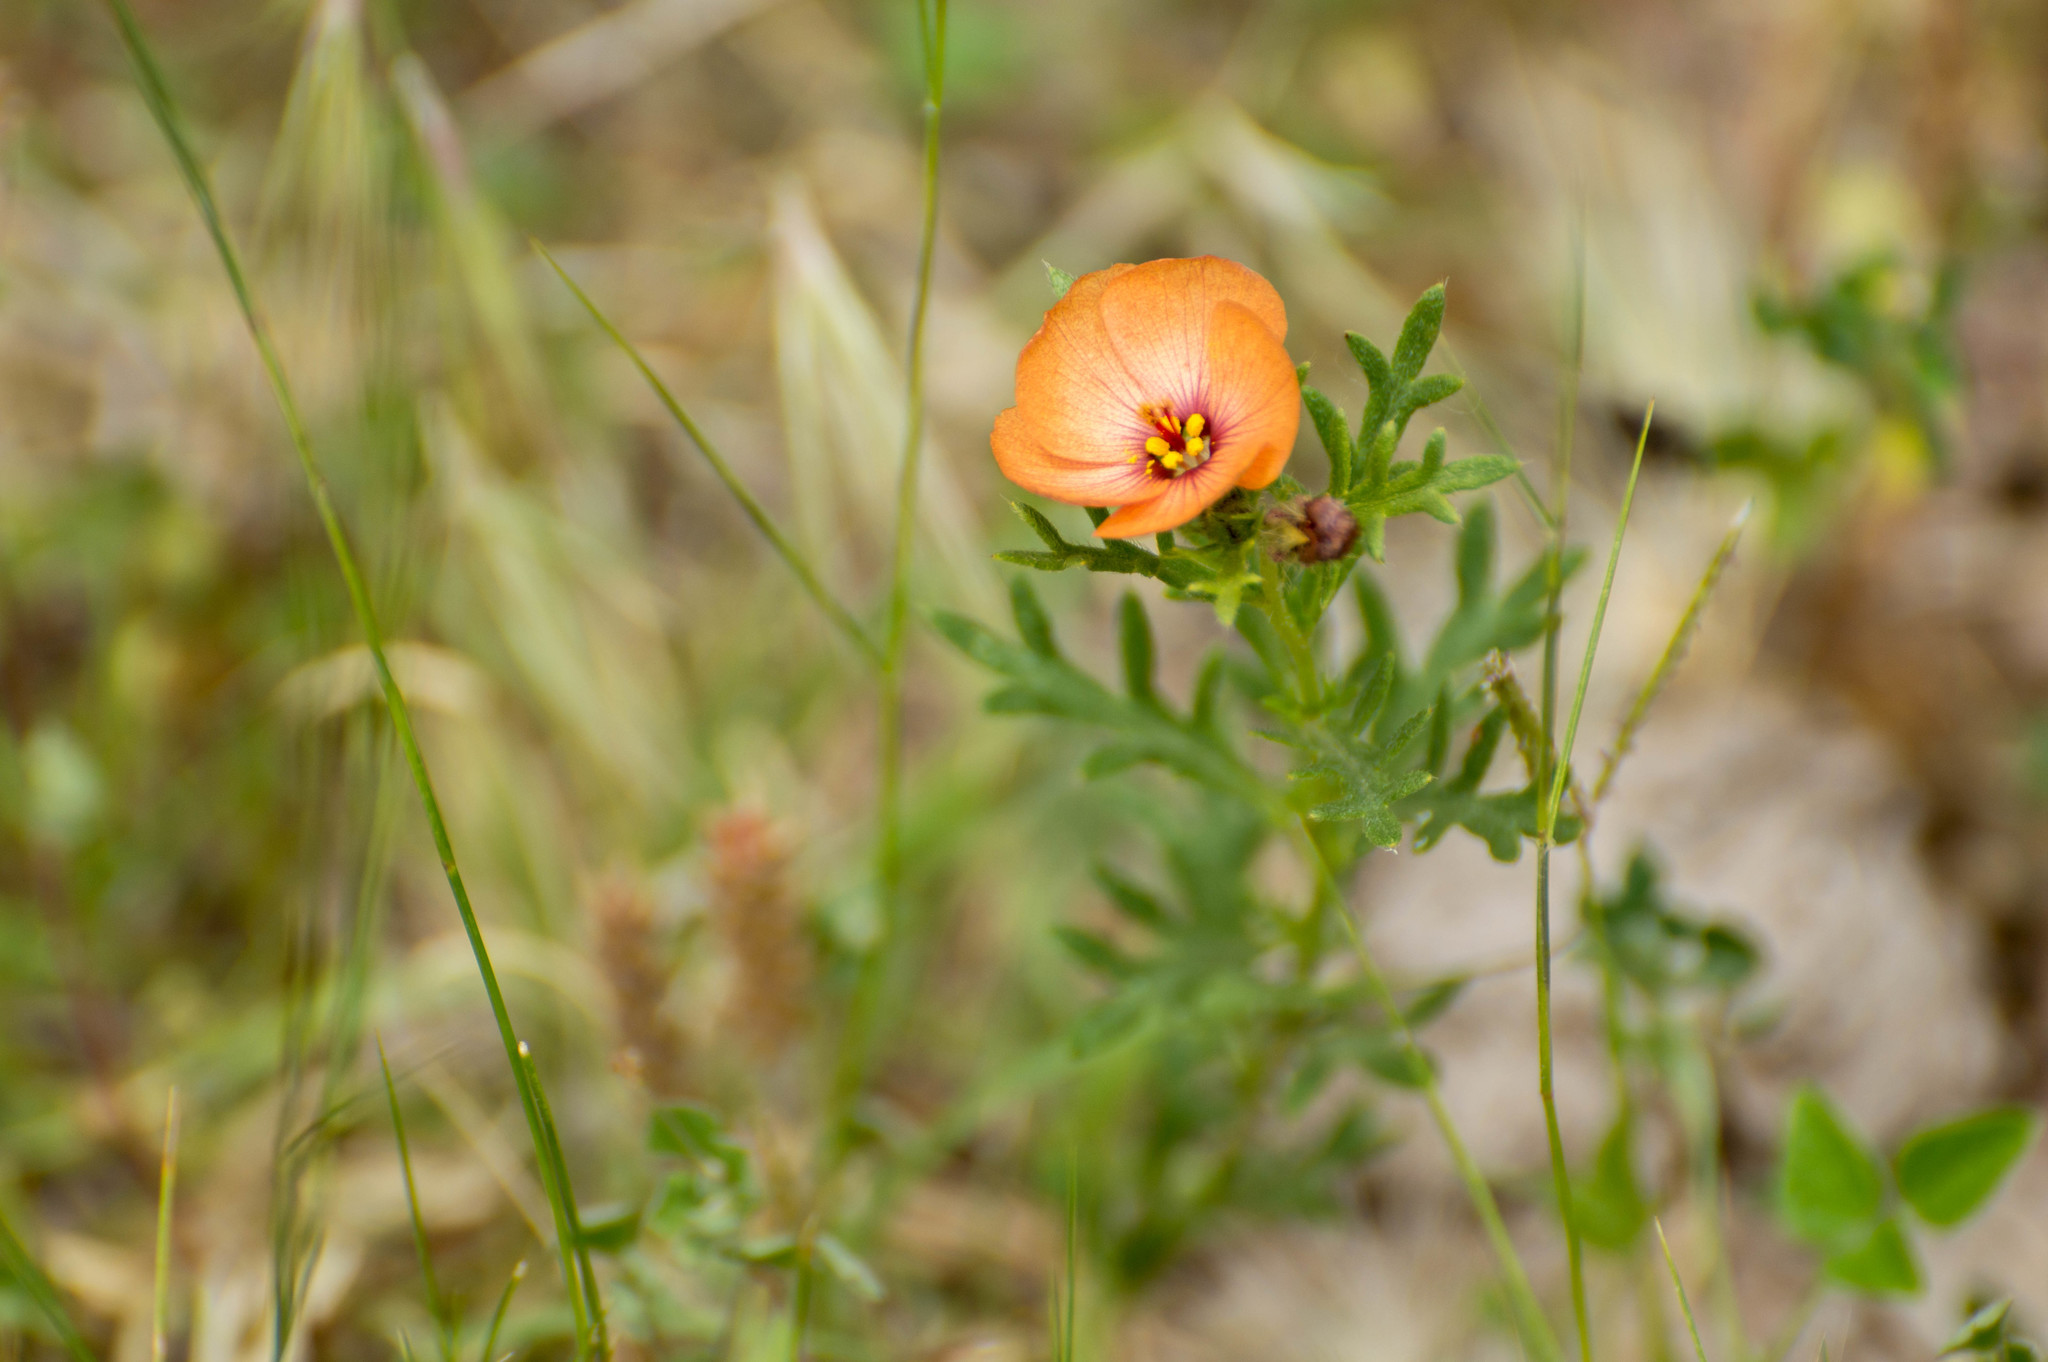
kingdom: Plantae
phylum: Tracheophyta
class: Magnoliopsida
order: Malpighiales
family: Turneraceae
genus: Turnera
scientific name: Turnera sidoides
